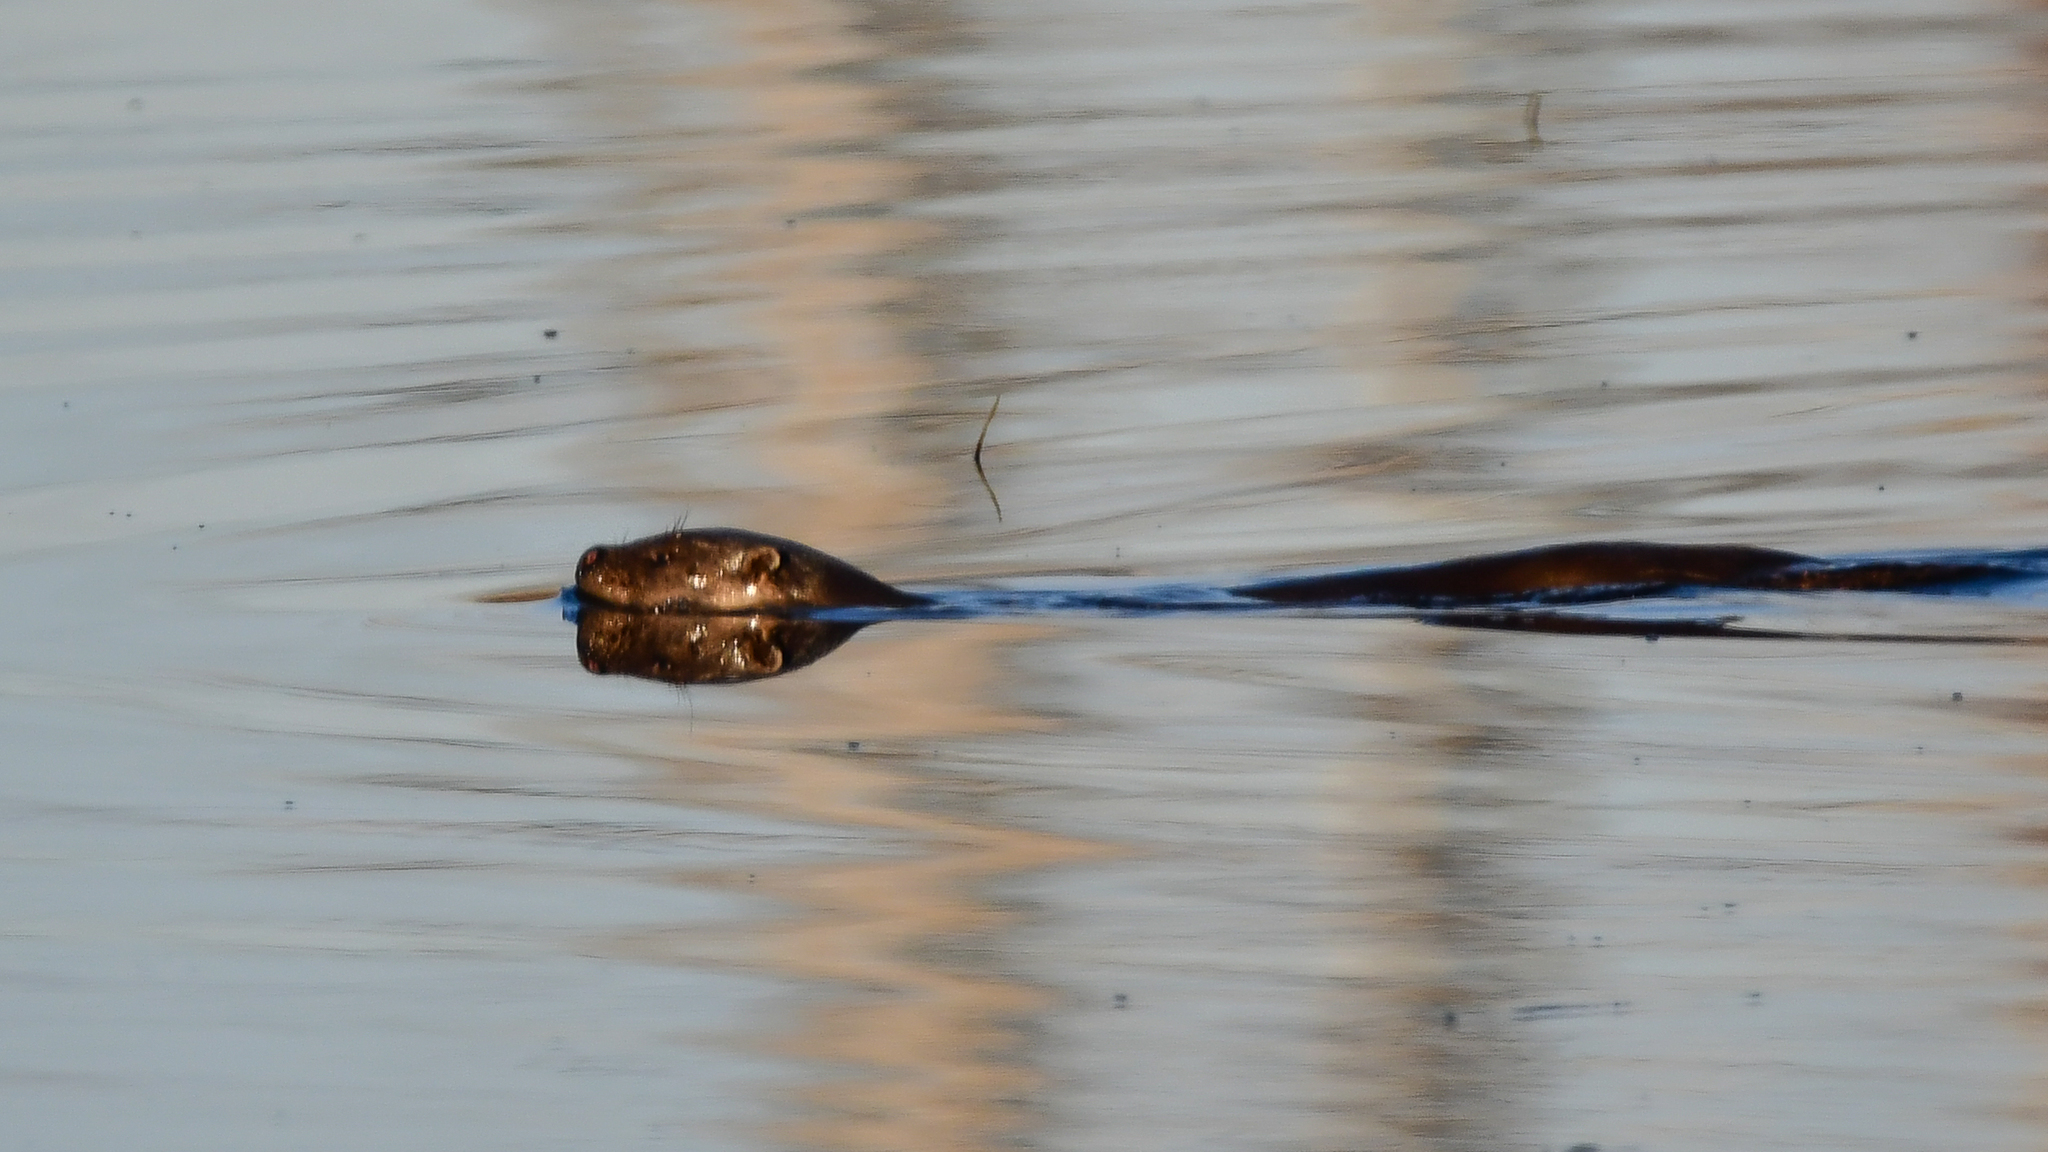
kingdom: Animalia
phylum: Chordata
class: Mammalia
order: Carnivora
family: Mustelidae
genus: Lutra
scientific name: Lutra lutra
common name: European otter
